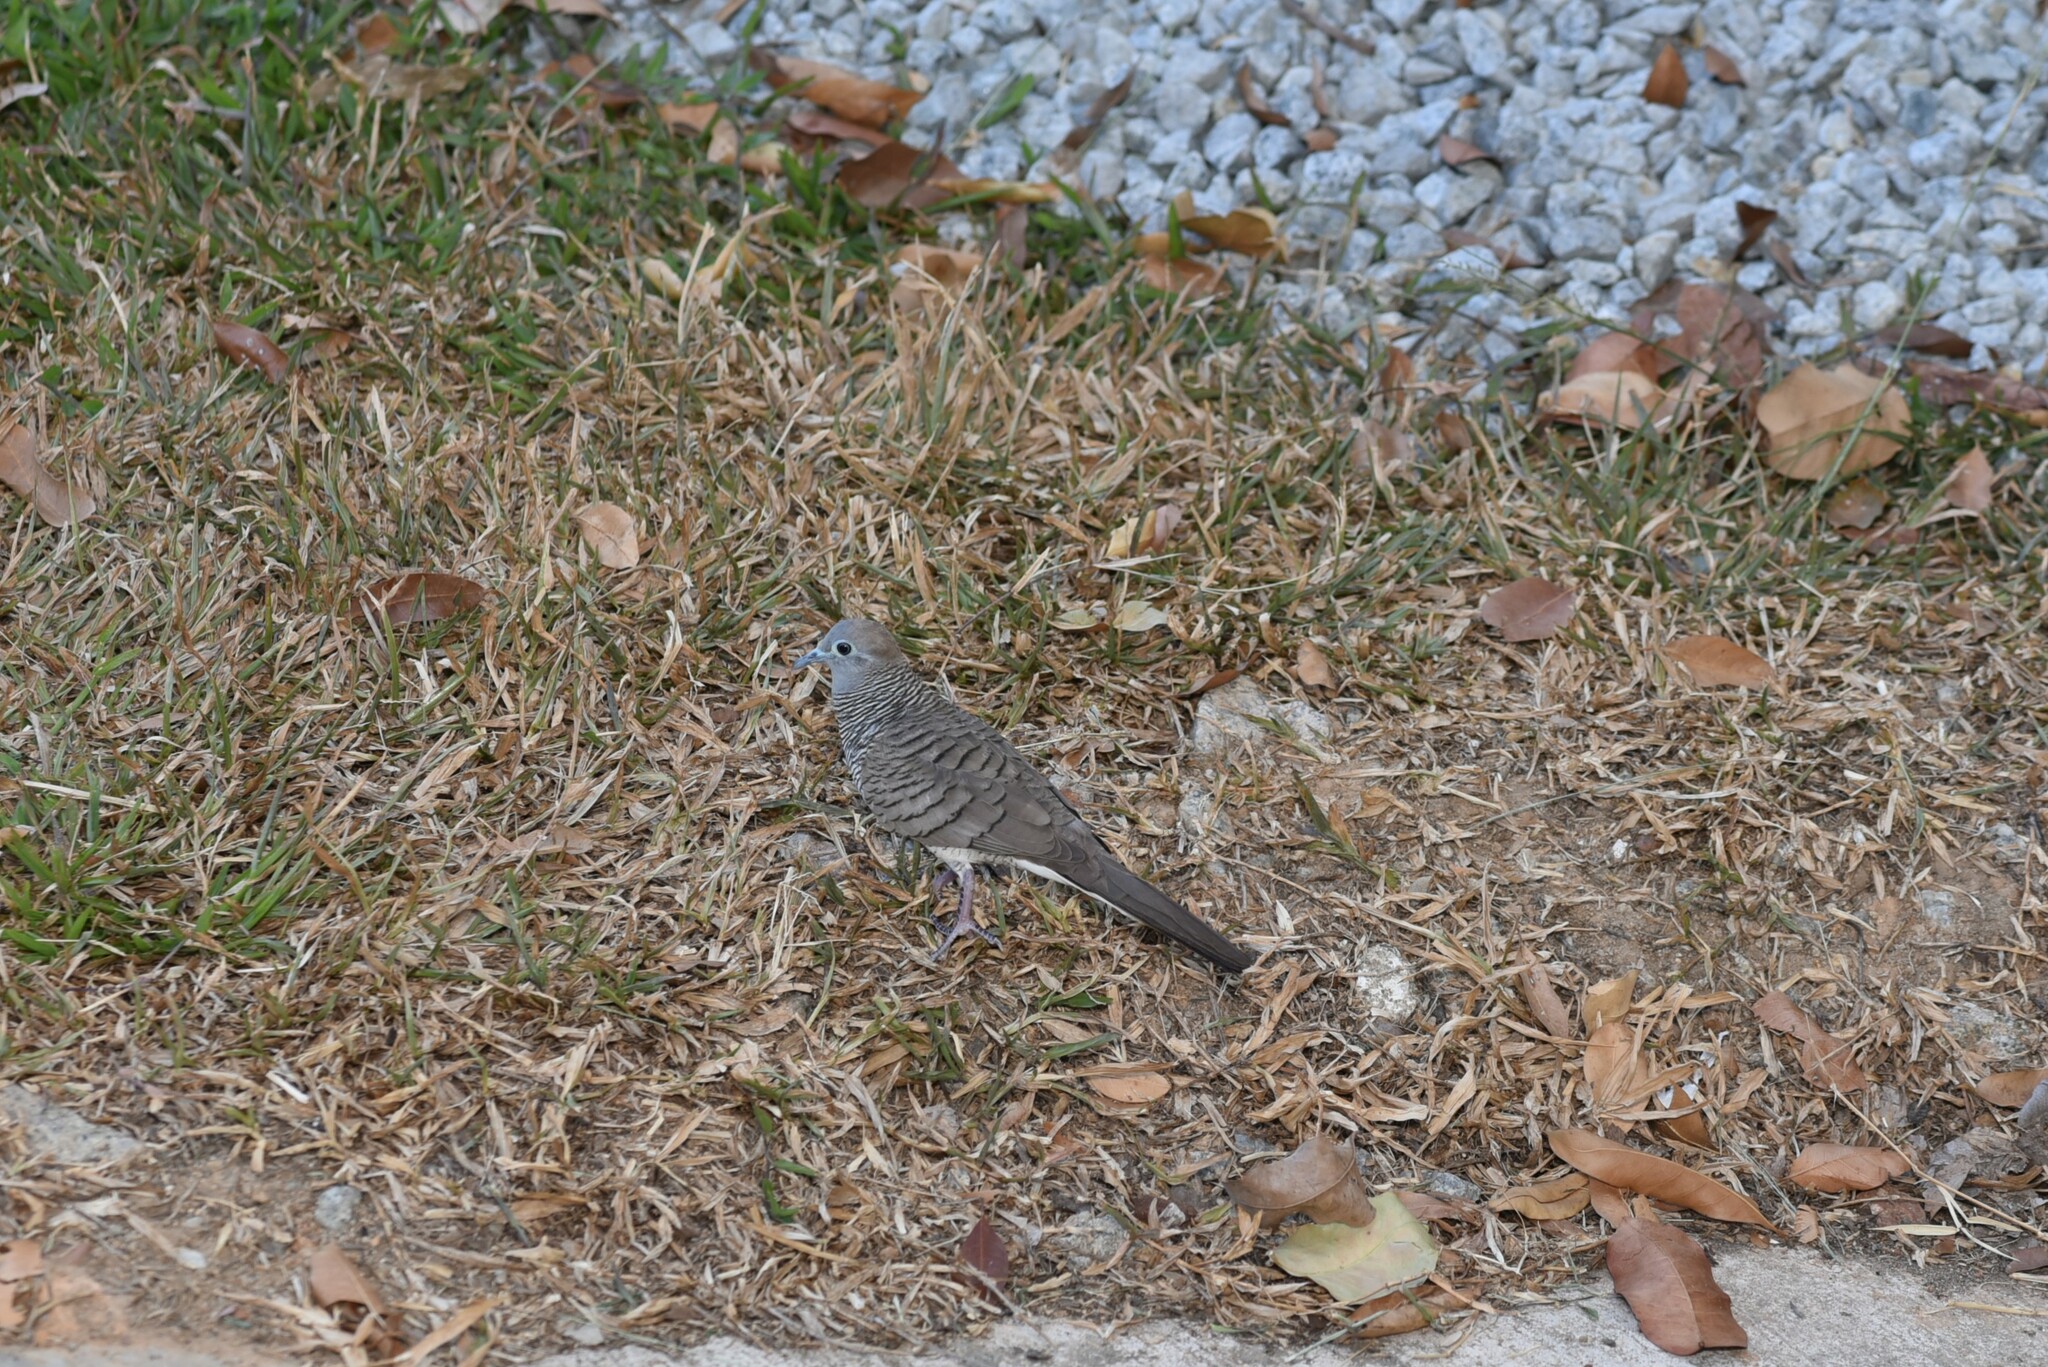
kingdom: Animalia
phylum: Chordata
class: Aves
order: Columbiformes
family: Columbidae
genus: Geopelia
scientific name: Geopelia striata
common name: Zebra dove
